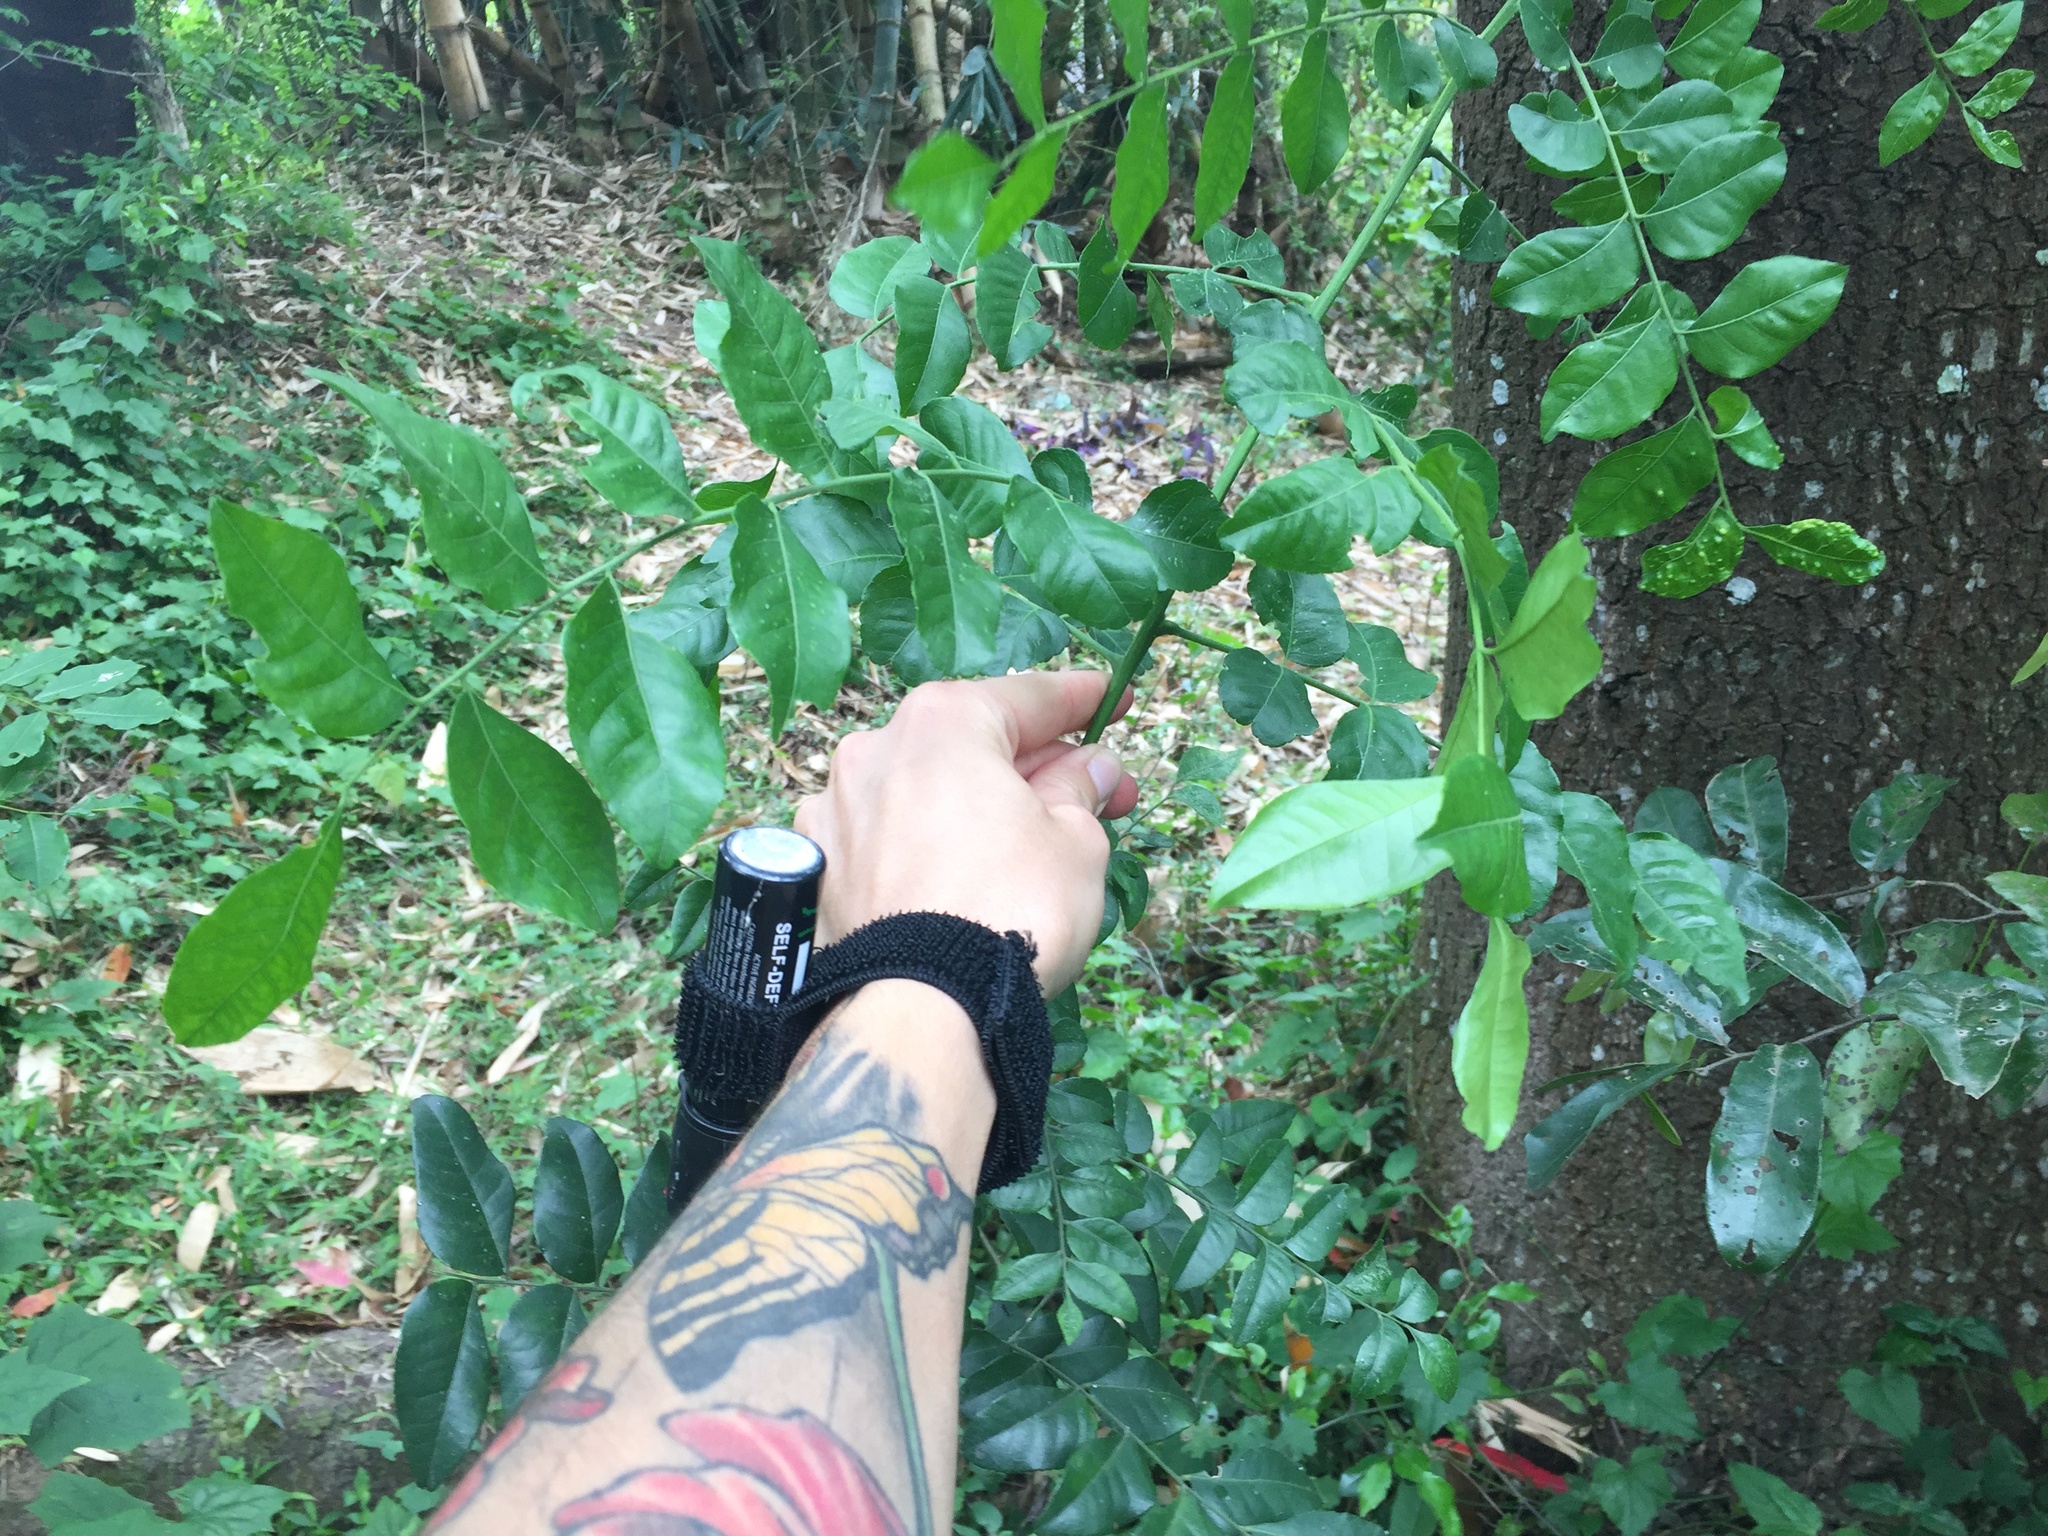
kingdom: Plantae
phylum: Tracheophyta
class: Magnoliopsida
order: Sapindales
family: Rutaceae
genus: Clausena
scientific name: Clausena anisata
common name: Horsewood
